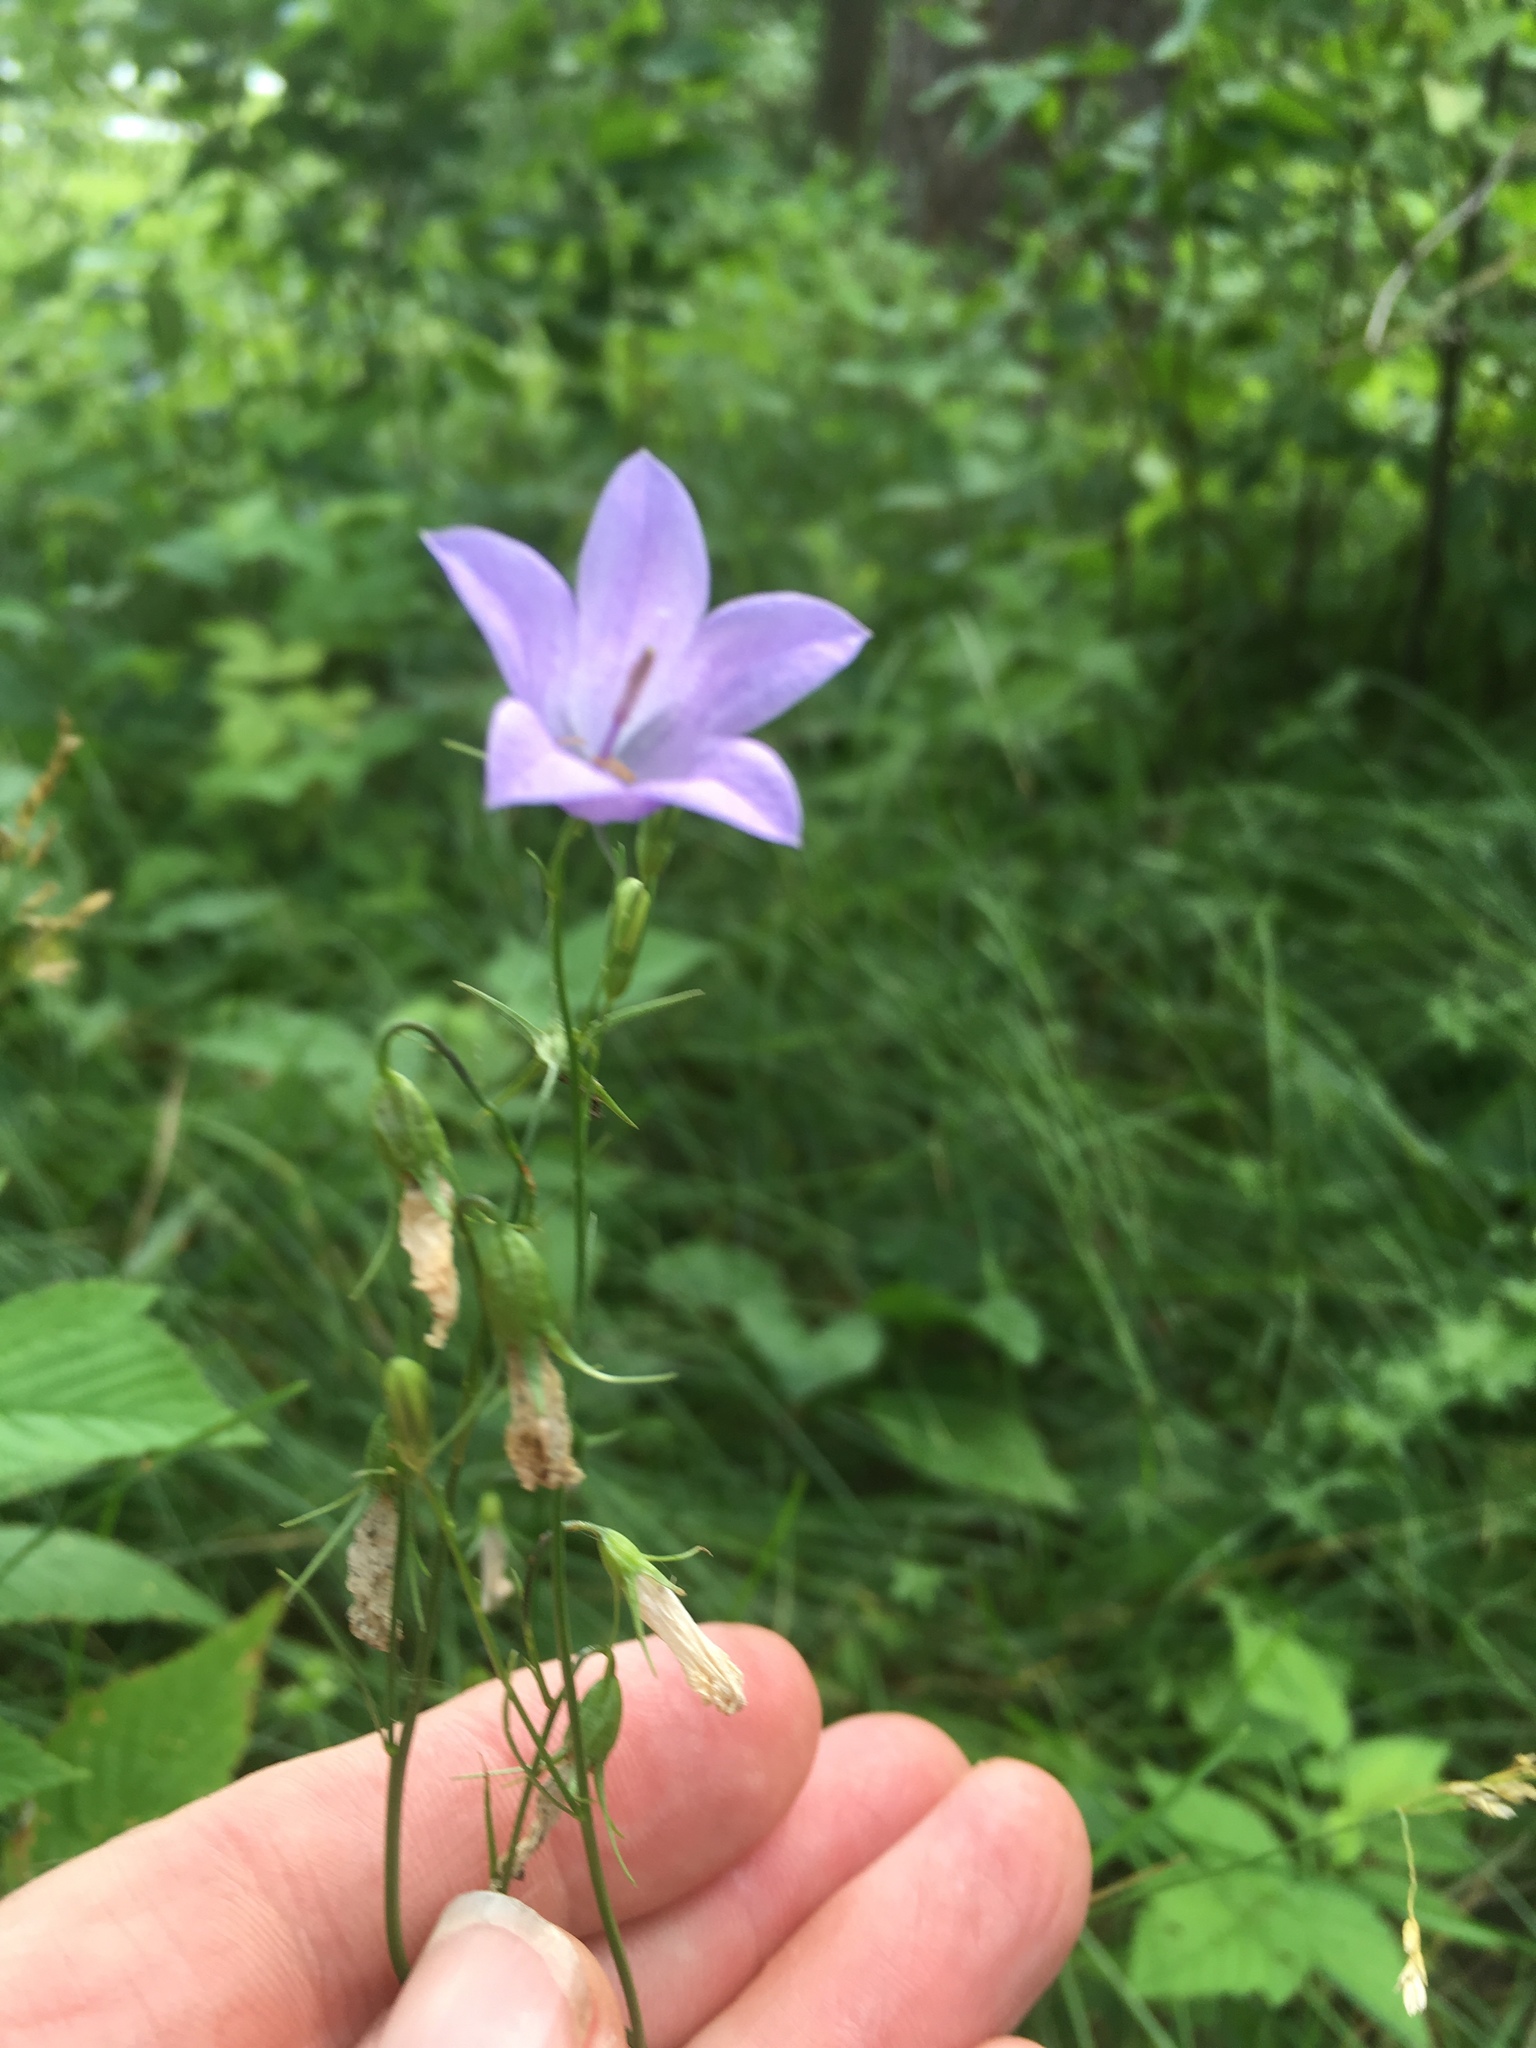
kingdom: Plantae
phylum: Tracheophyta
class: Magnoliopsida
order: Asterales
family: Campanulaceae
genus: Campanula
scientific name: Campanula intercedens
